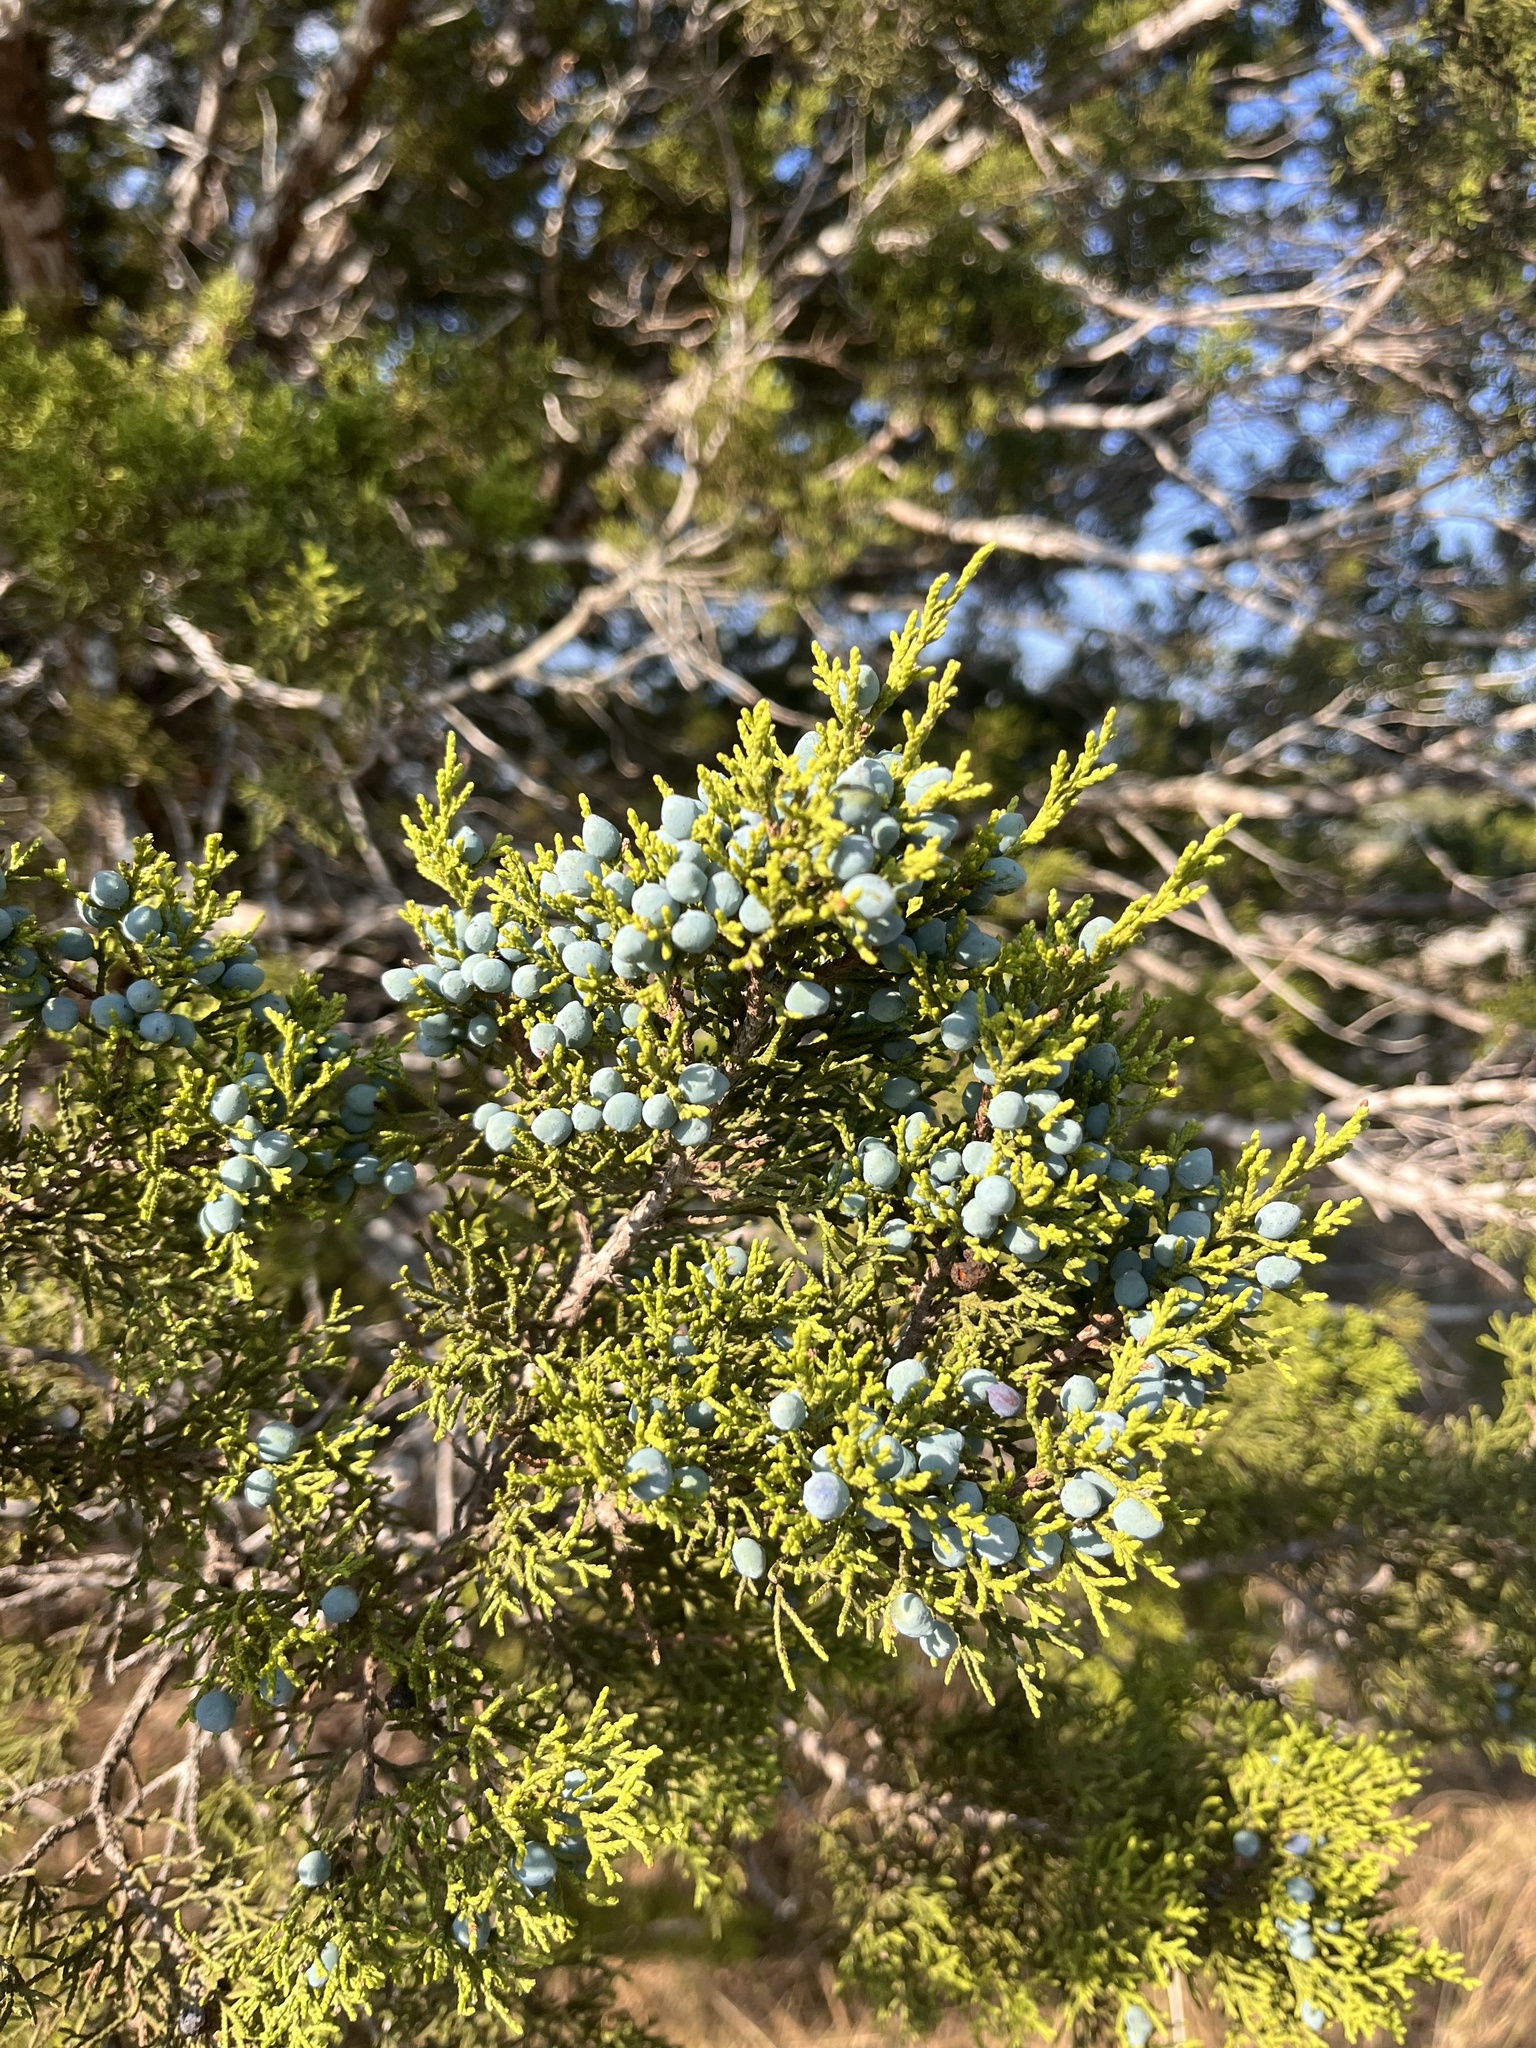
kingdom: Plantae
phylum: Tracheophyta
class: Pinopsida
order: Pinales
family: Cupressaceae
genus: Juniperus
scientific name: Juniperus ashei
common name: Mexican juniper
